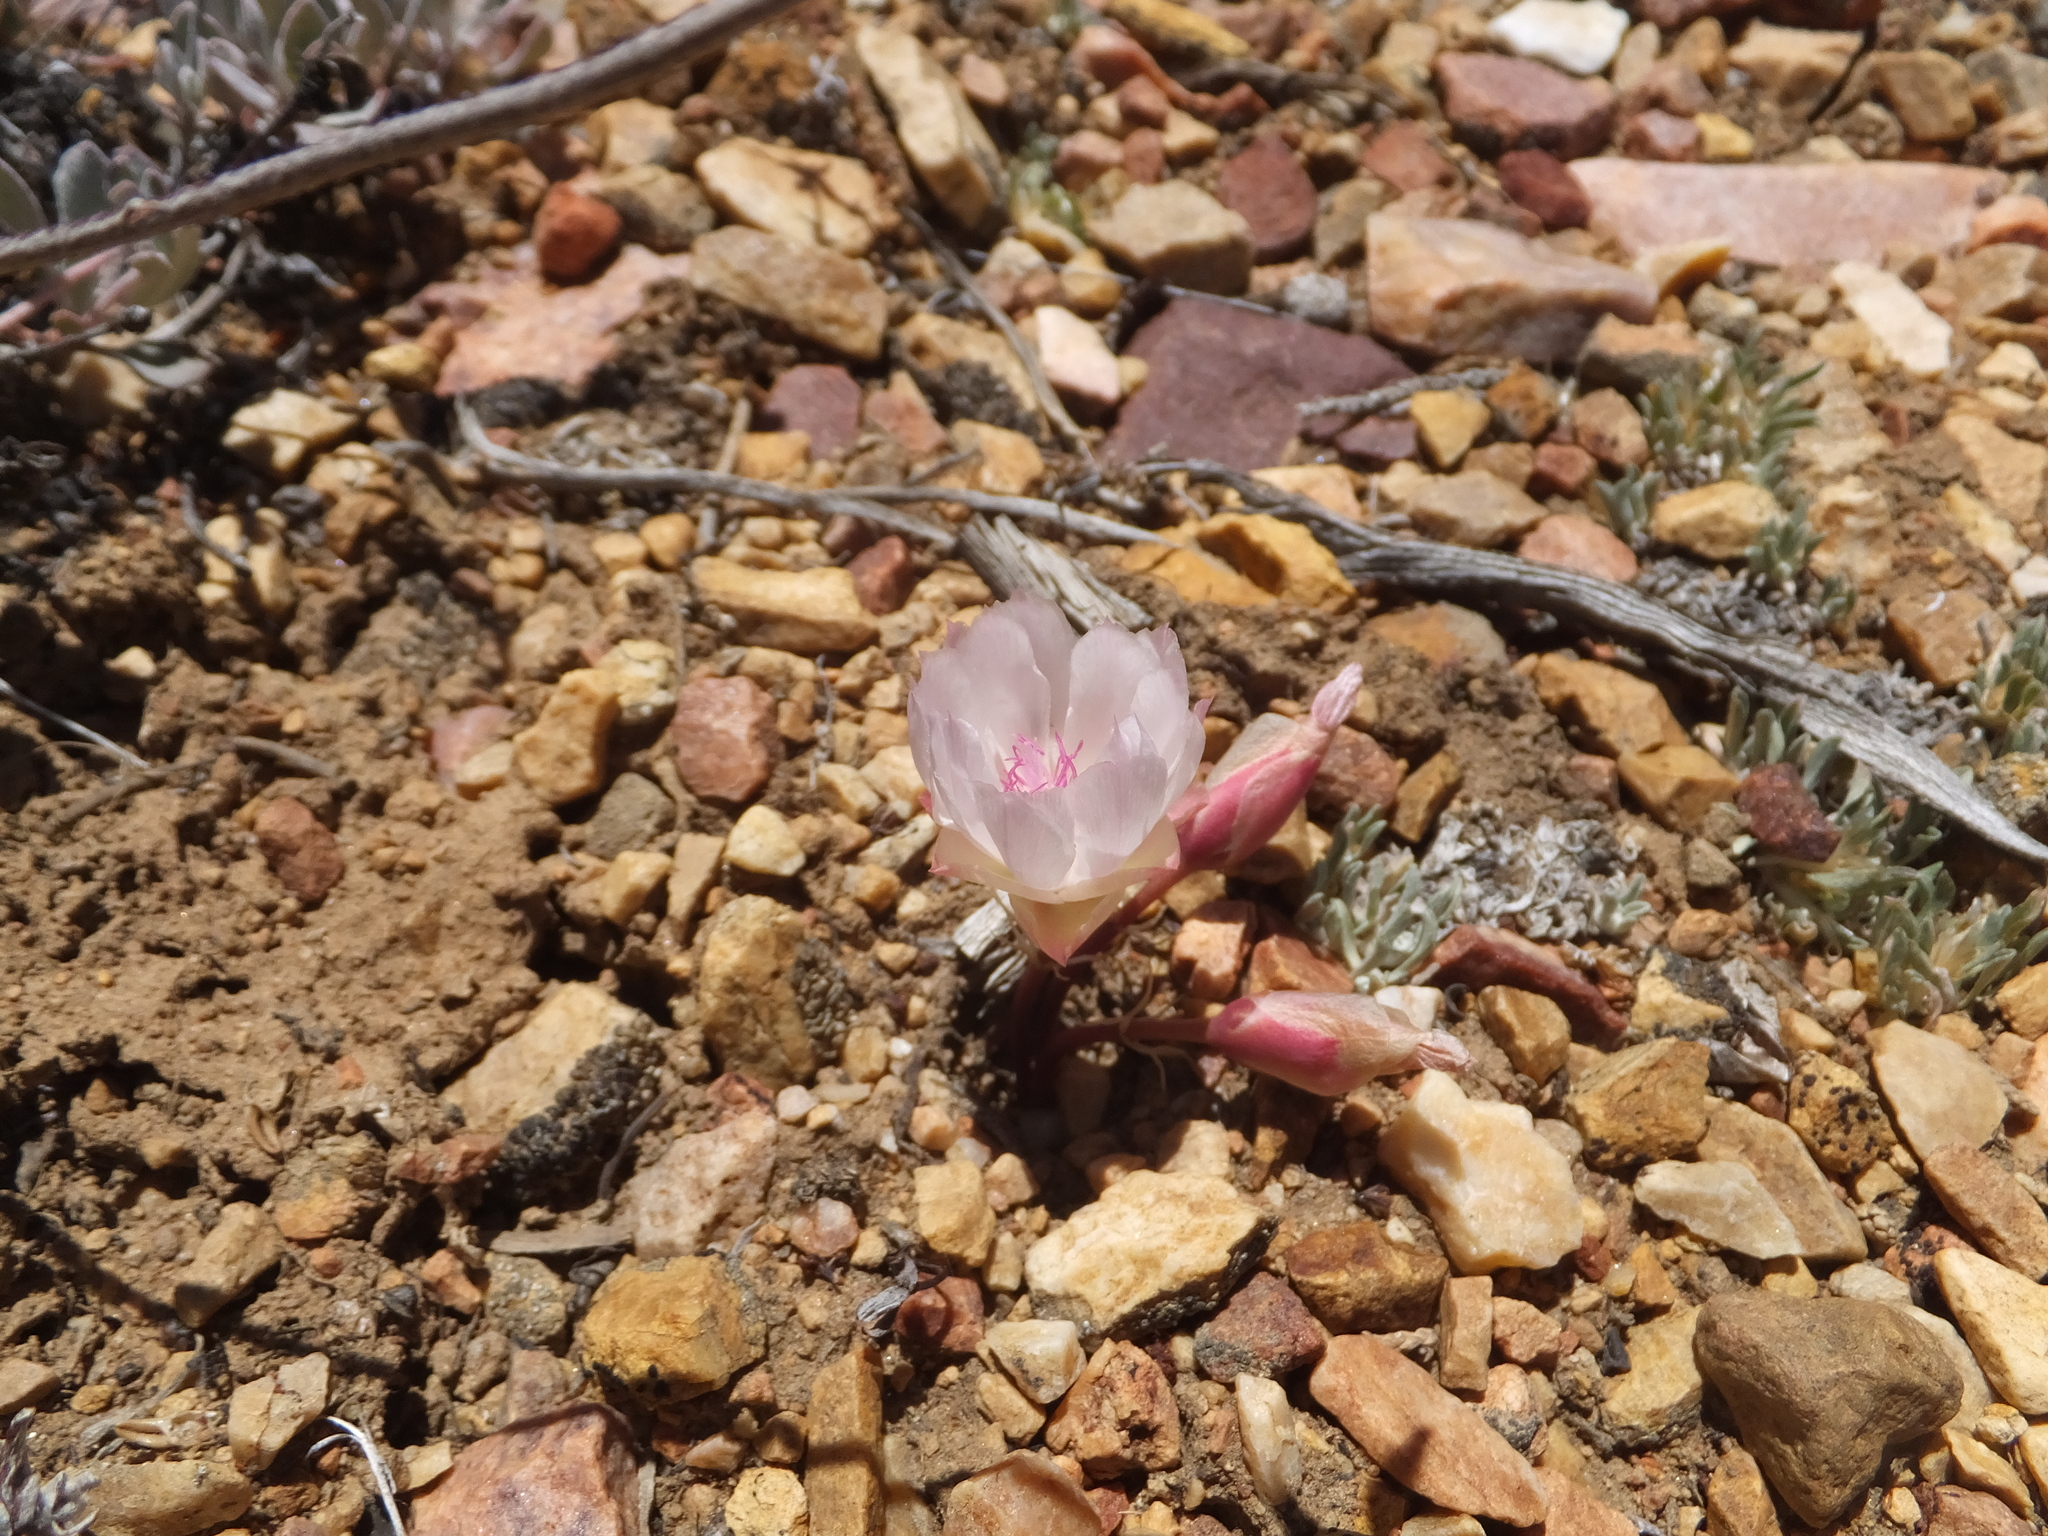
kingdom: Plantae
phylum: Tracheophyta
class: Magnoliopsida
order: Caryophyllales
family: Montiaceae
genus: Lewisia
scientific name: Lewisia rediviva
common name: Bitter-root
